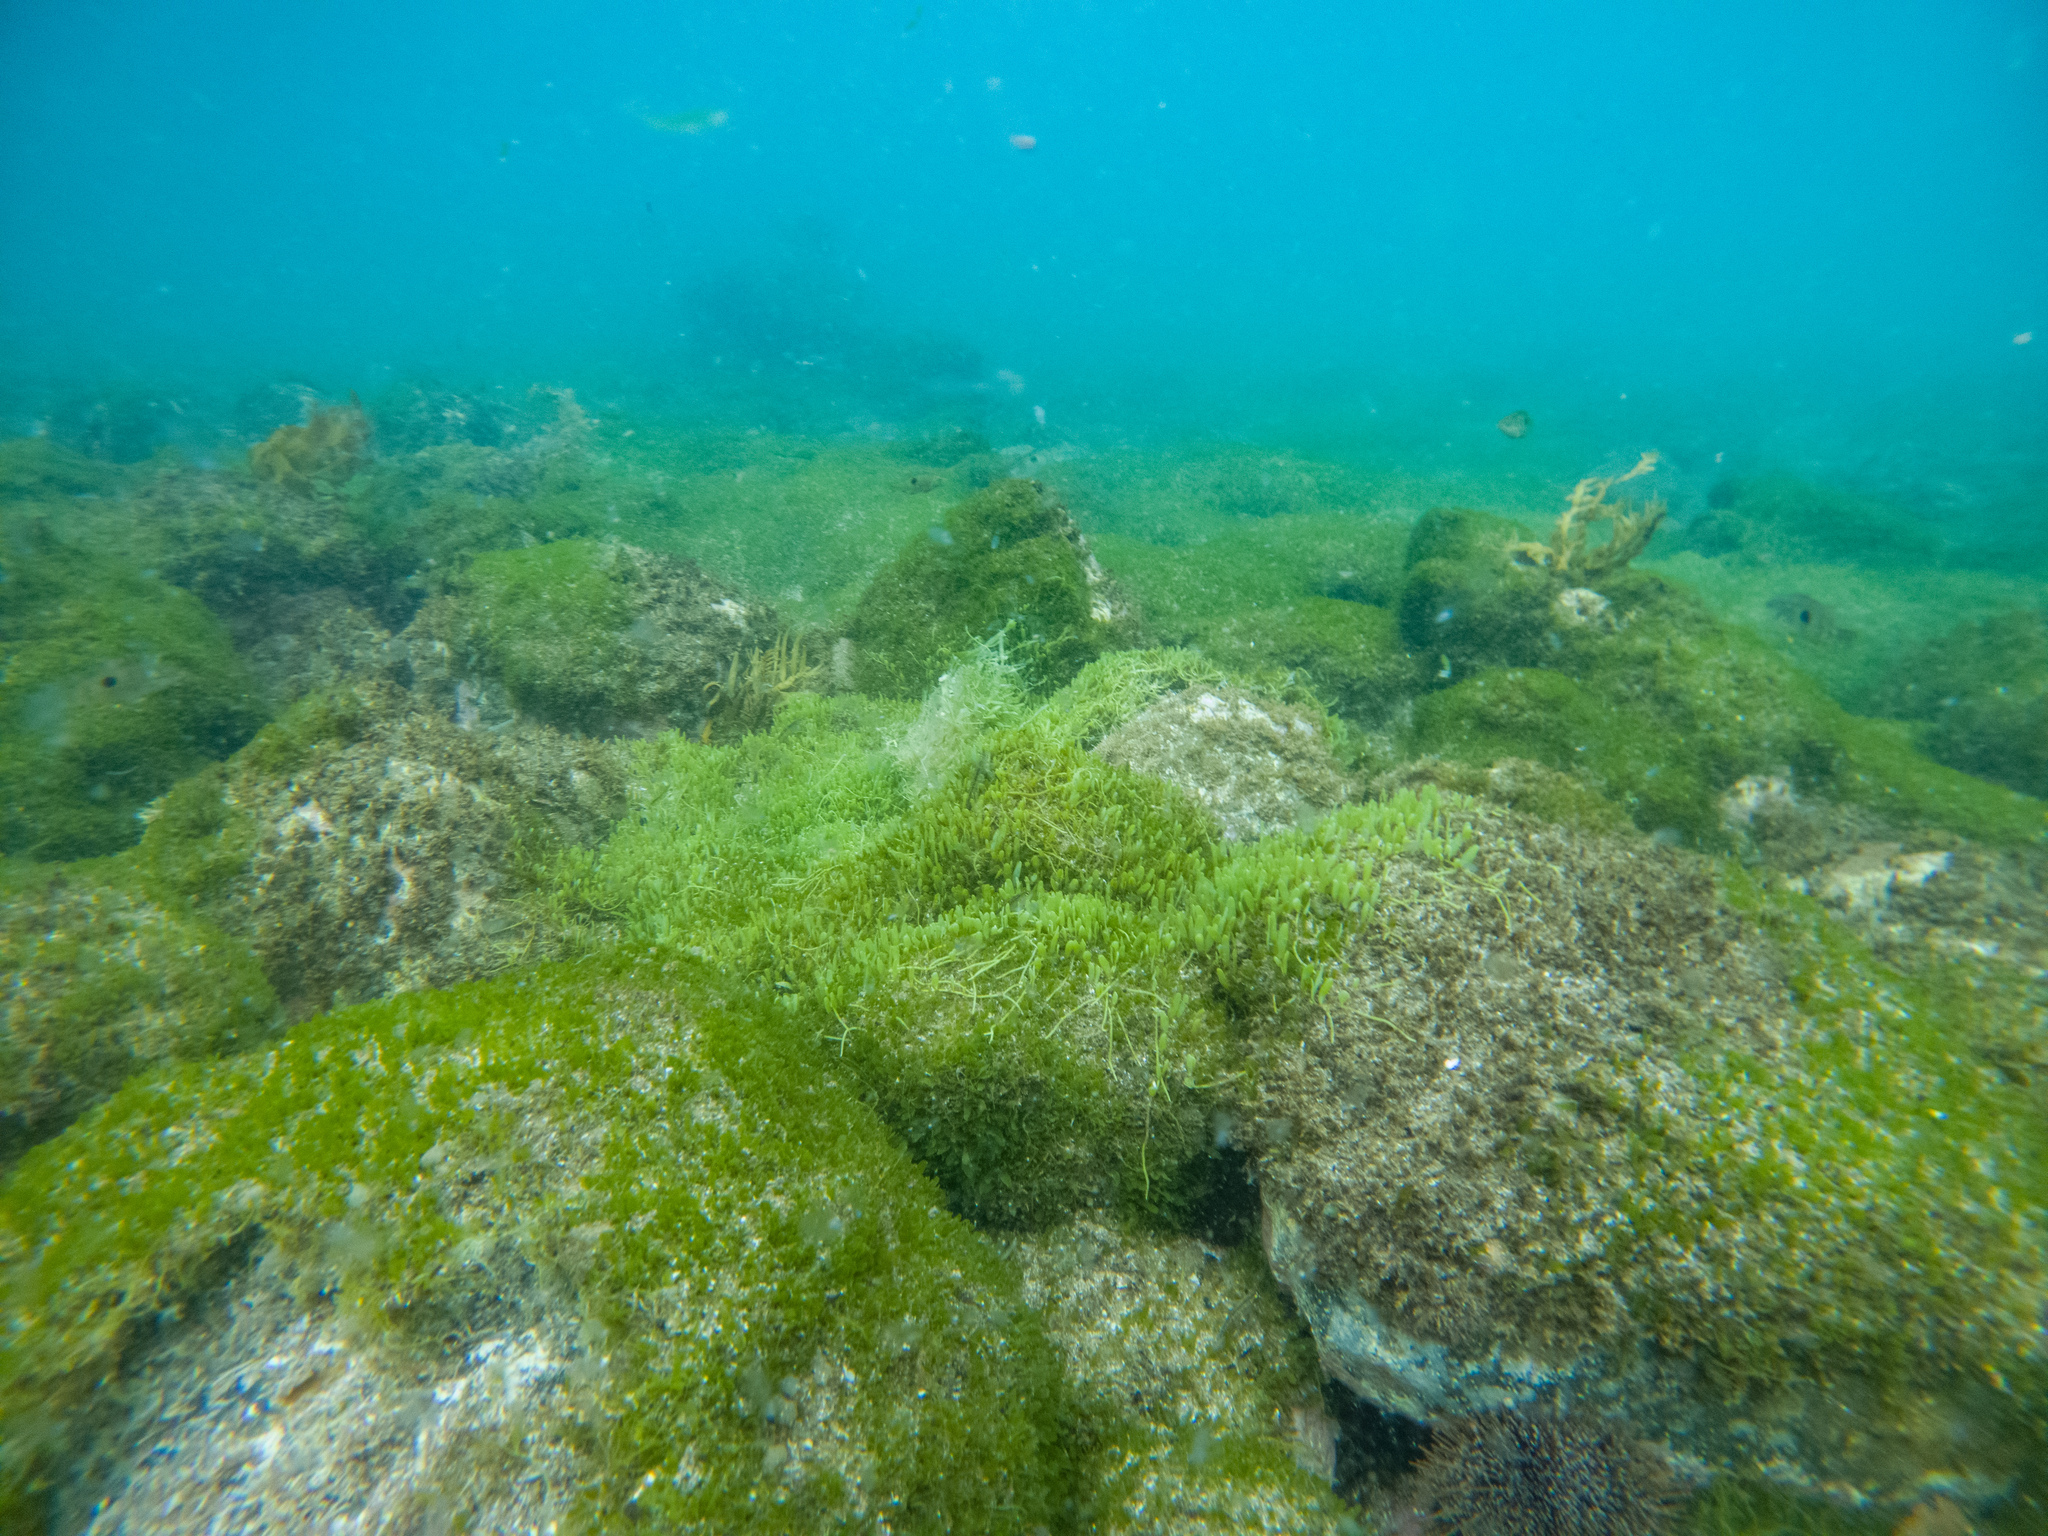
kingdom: Plantae
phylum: Chlorophyta
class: Ulvophyceae
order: Bryopsidales
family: Caulerpaceae
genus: Caulerpa
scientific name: Caulerpa brachypus
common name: Macroalgae
